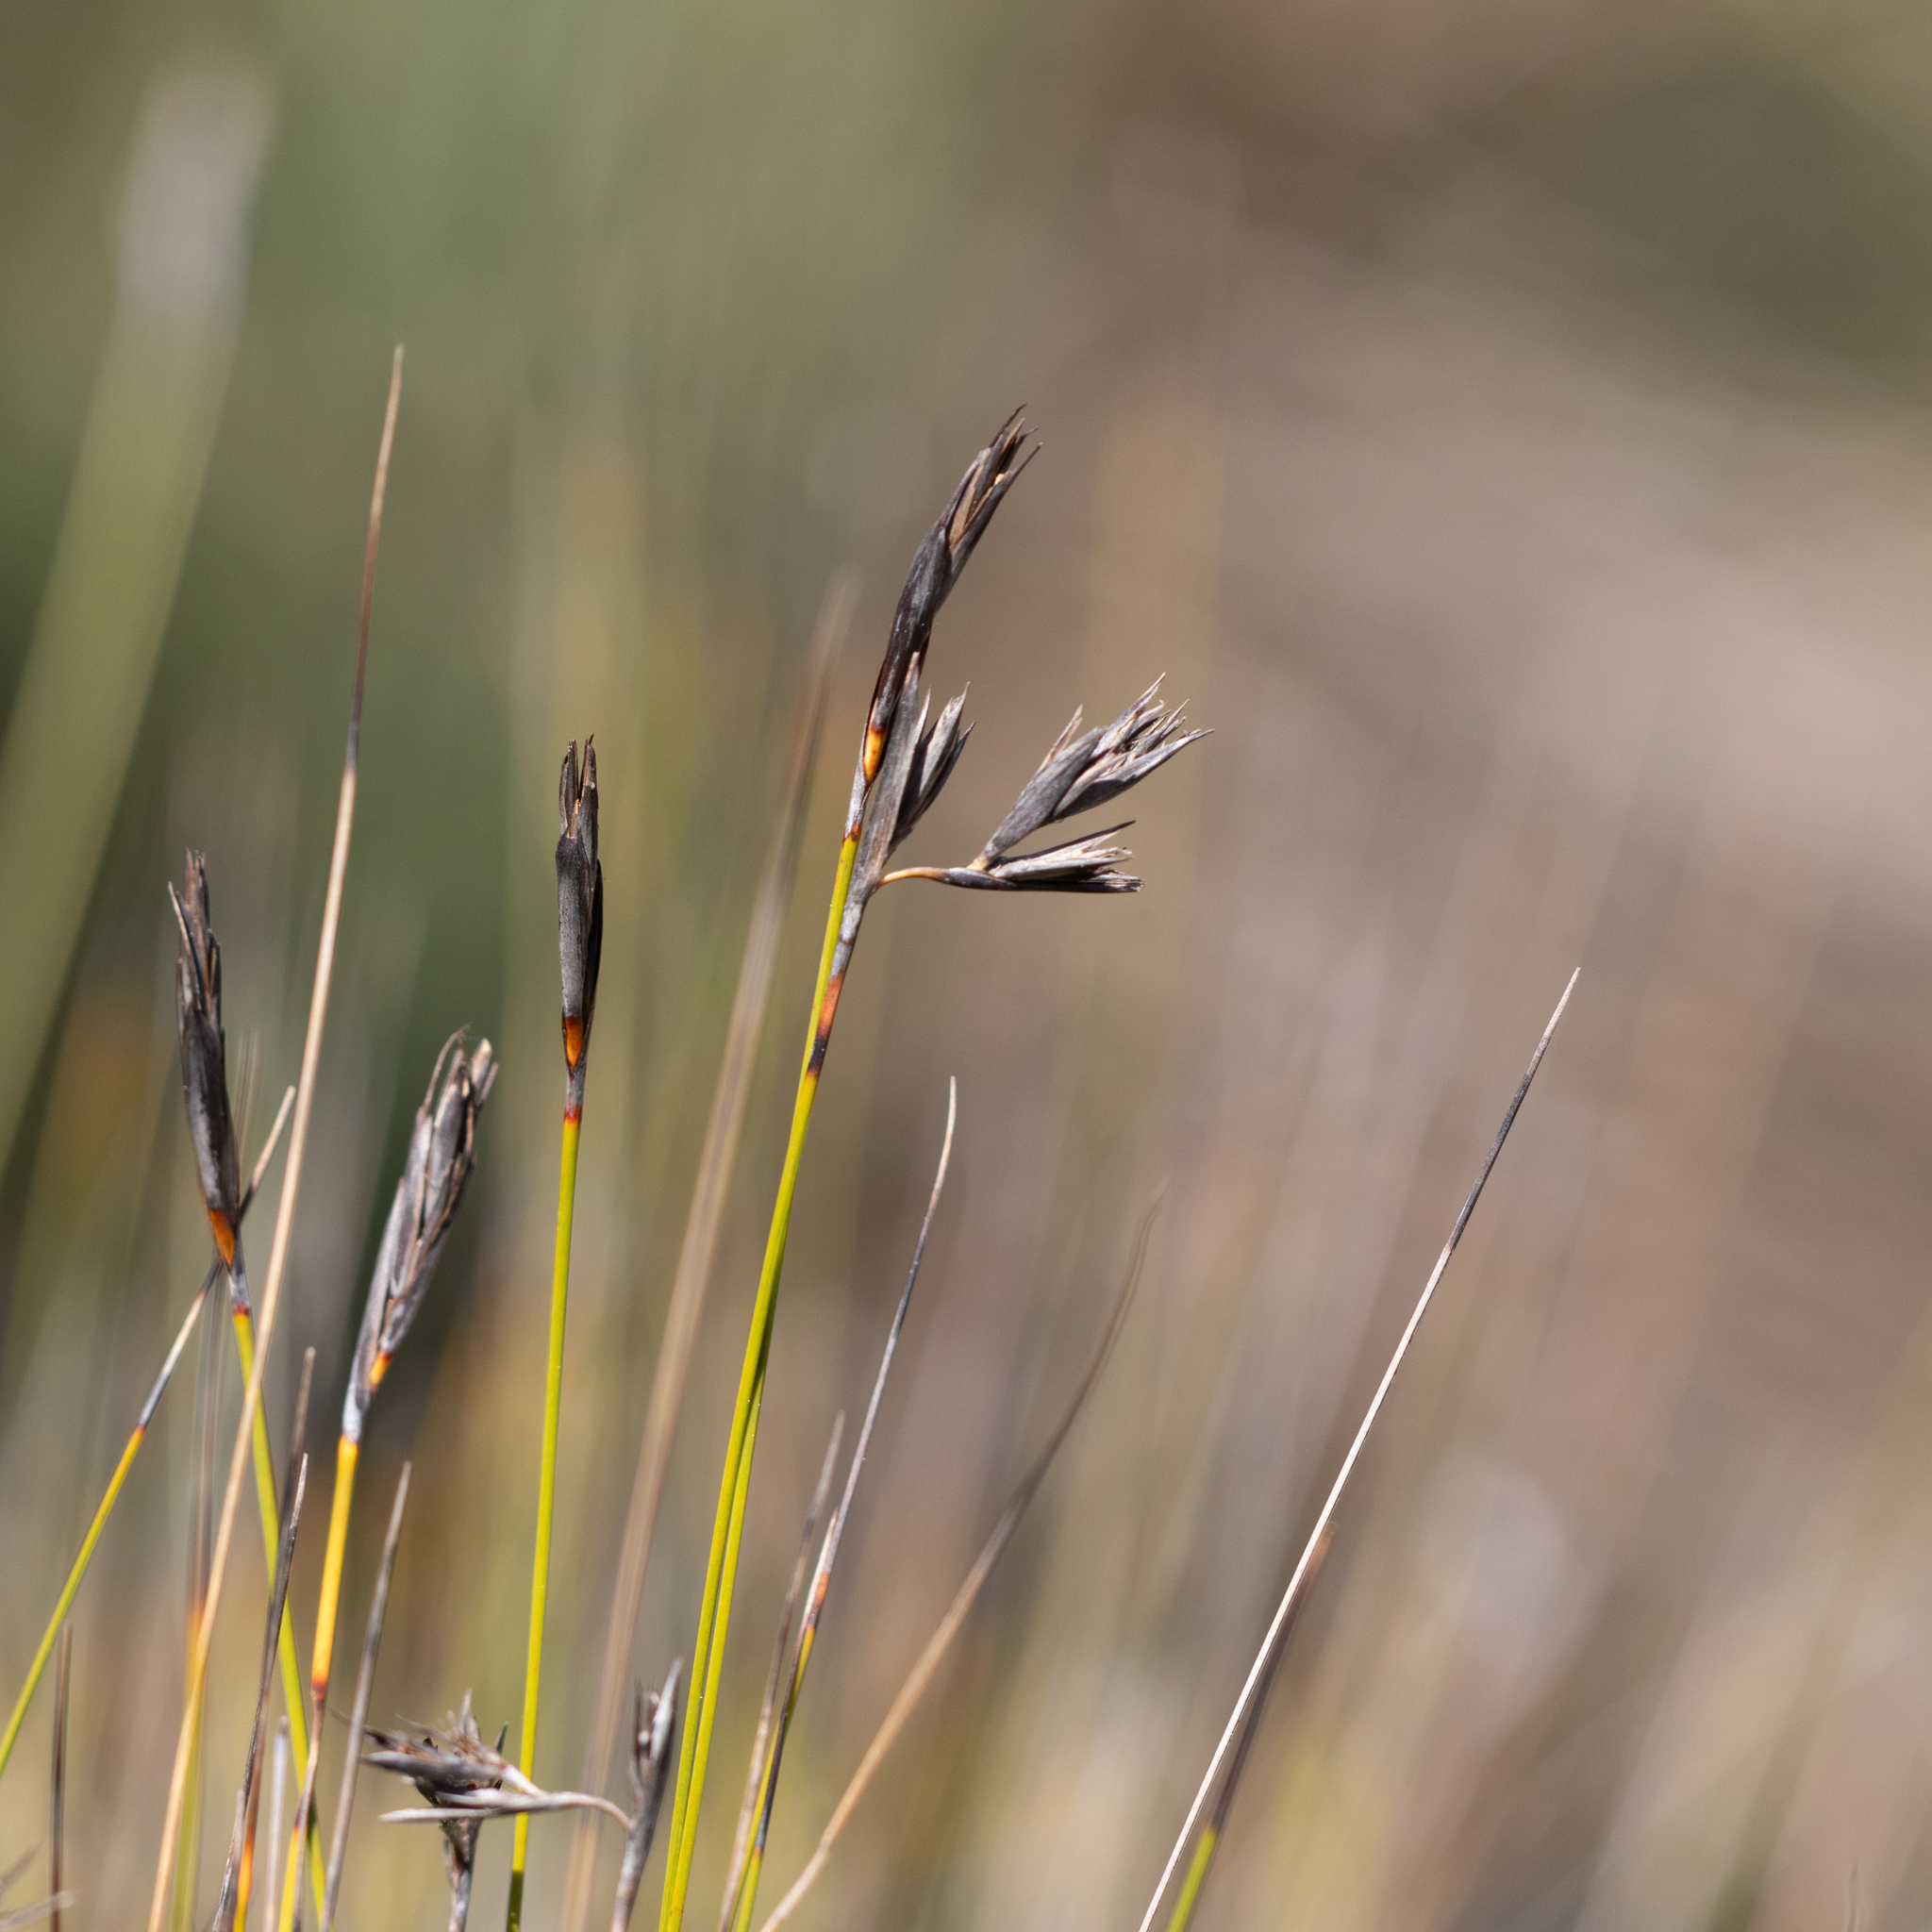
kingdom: Plantae
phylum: Tracheophyta
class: Liliopsida
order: Poales
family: Cyperaceae
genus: Lepidosperma
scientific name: Lepidosperma carphoides
